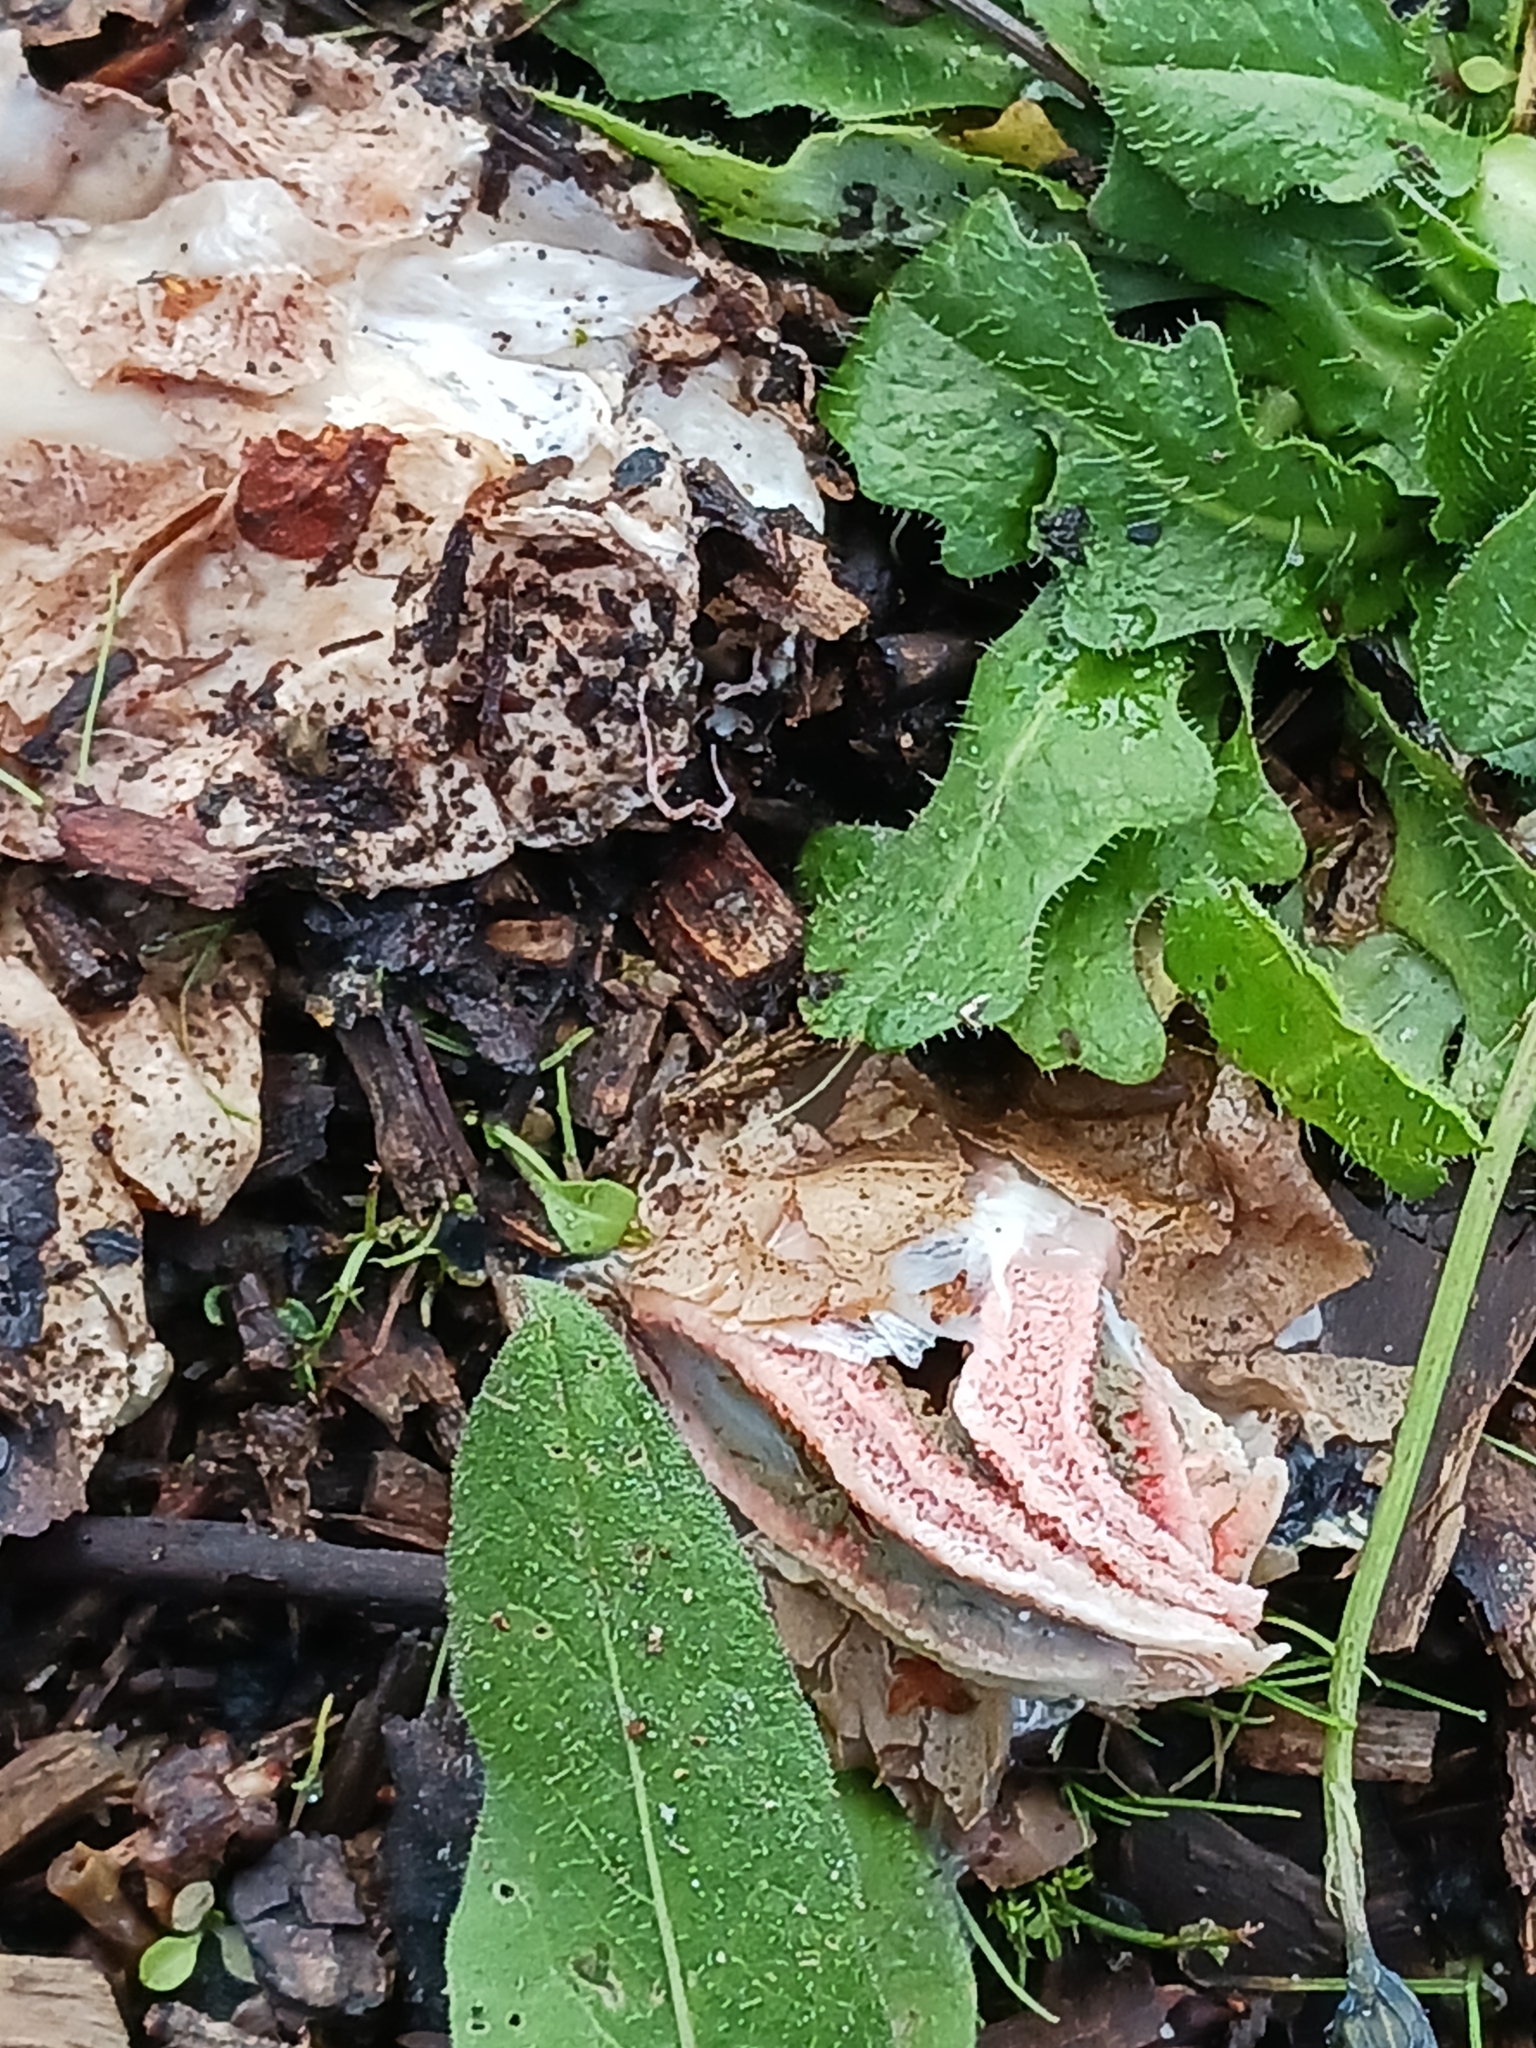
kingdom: Fungi
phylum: Basidiomycota
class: Agaricomycetes
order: Phallales
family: Phallaceae
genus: Clathrus
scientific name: Clathrus archeri
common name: Devil's fingers
